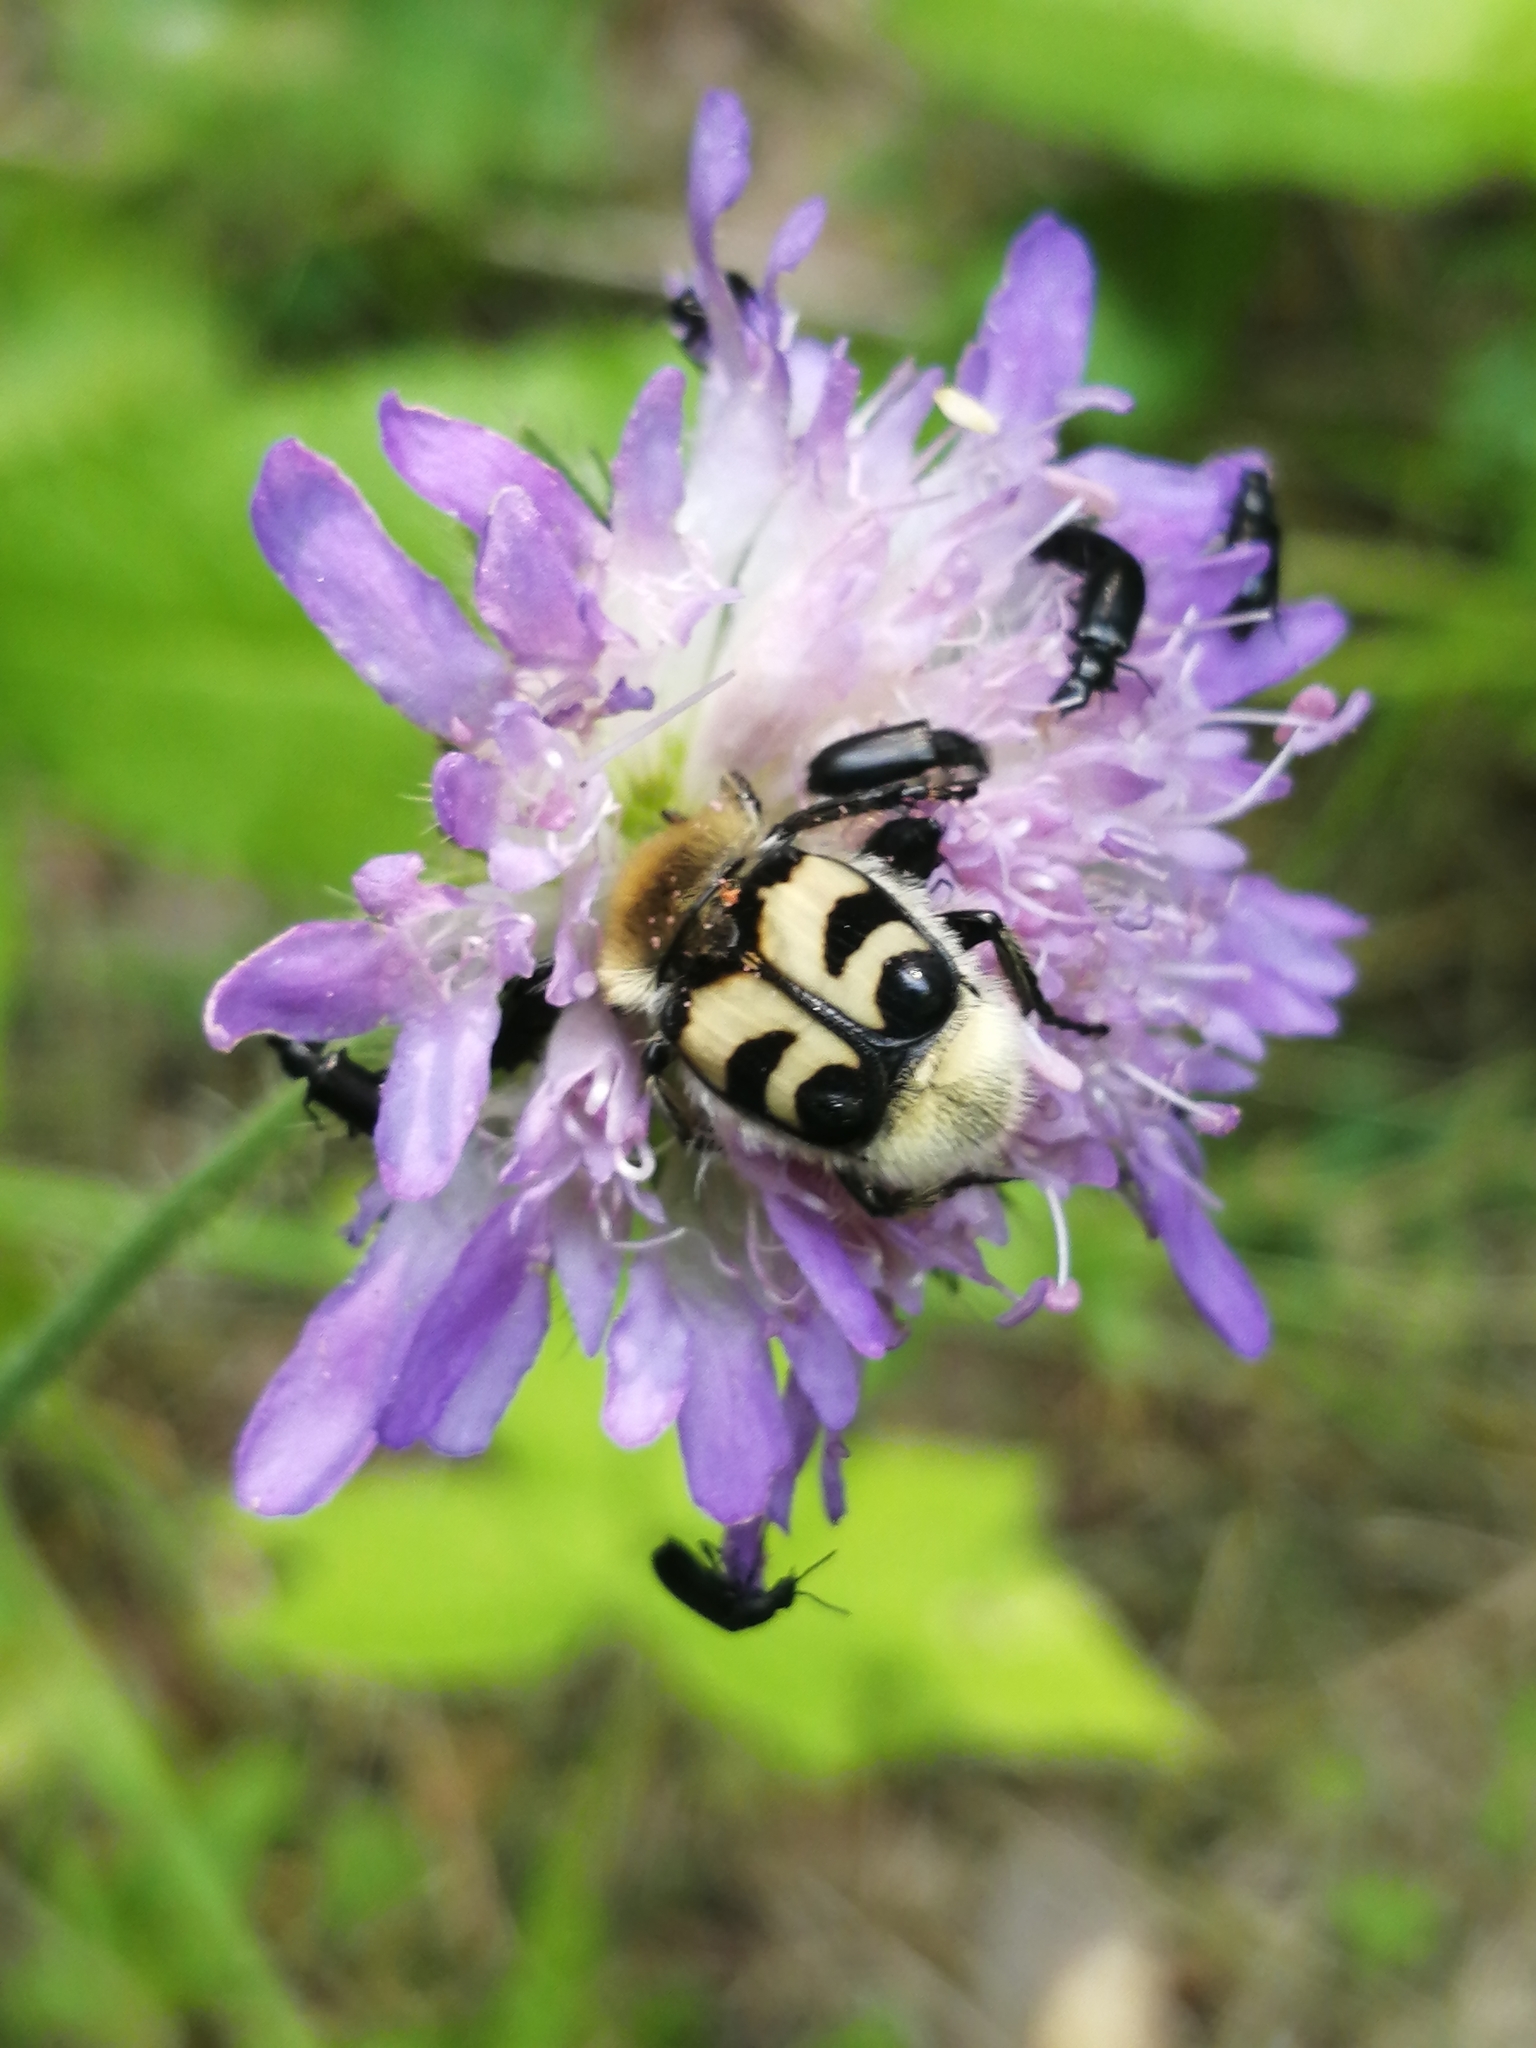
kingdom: Animalia
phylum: Arthropoda
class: Insecta
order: Coleoptera
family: Scarabaeidae
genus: Trichius
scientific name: Trichius fasciatus
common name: Bee beetle
